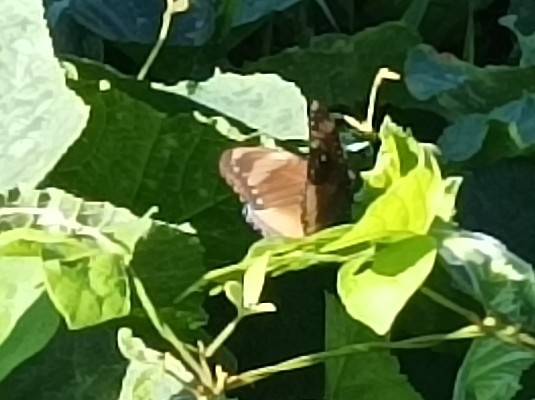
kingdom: Animalia
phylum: Arthropoda
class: Insecta
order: Lepidoptera
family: Nymphalidae
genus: Hypolimnas
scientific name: Hypolimnas antilope
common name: Spotted crow eggfly
